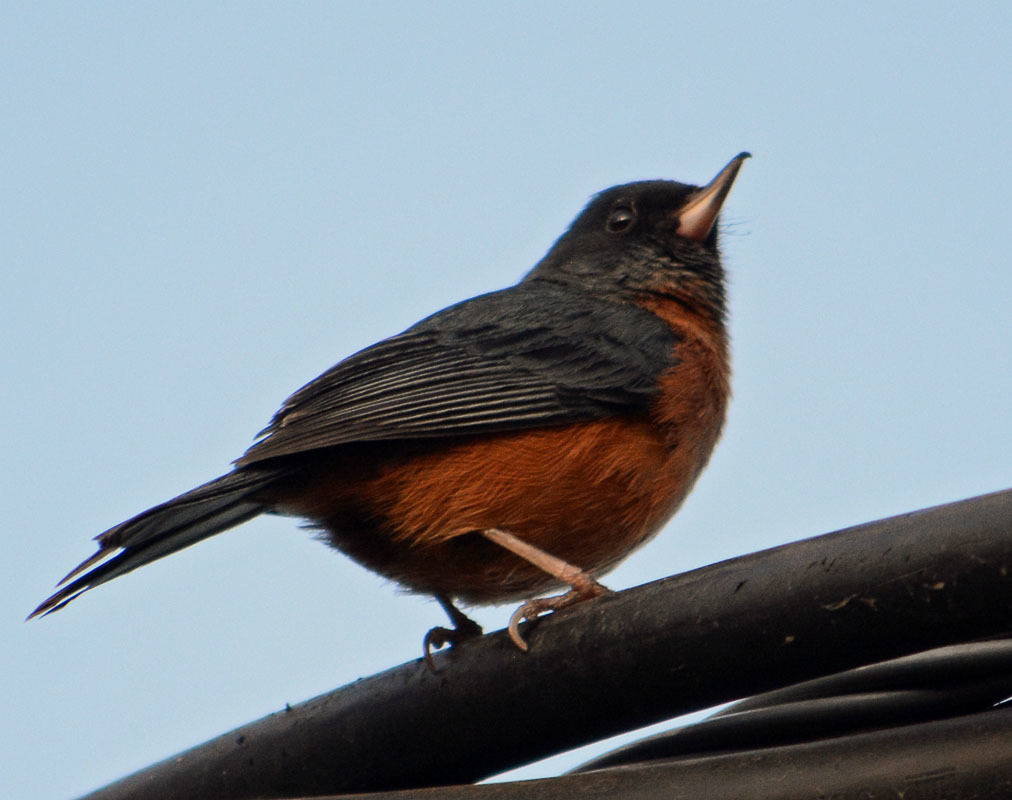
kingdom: Animalia
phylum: Chordata
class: Aves
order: Passeriformes
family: Thraupidae
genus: Diglossa
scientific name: Diglossa baritula
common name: Cinnamon-bellied flowerpiercer
